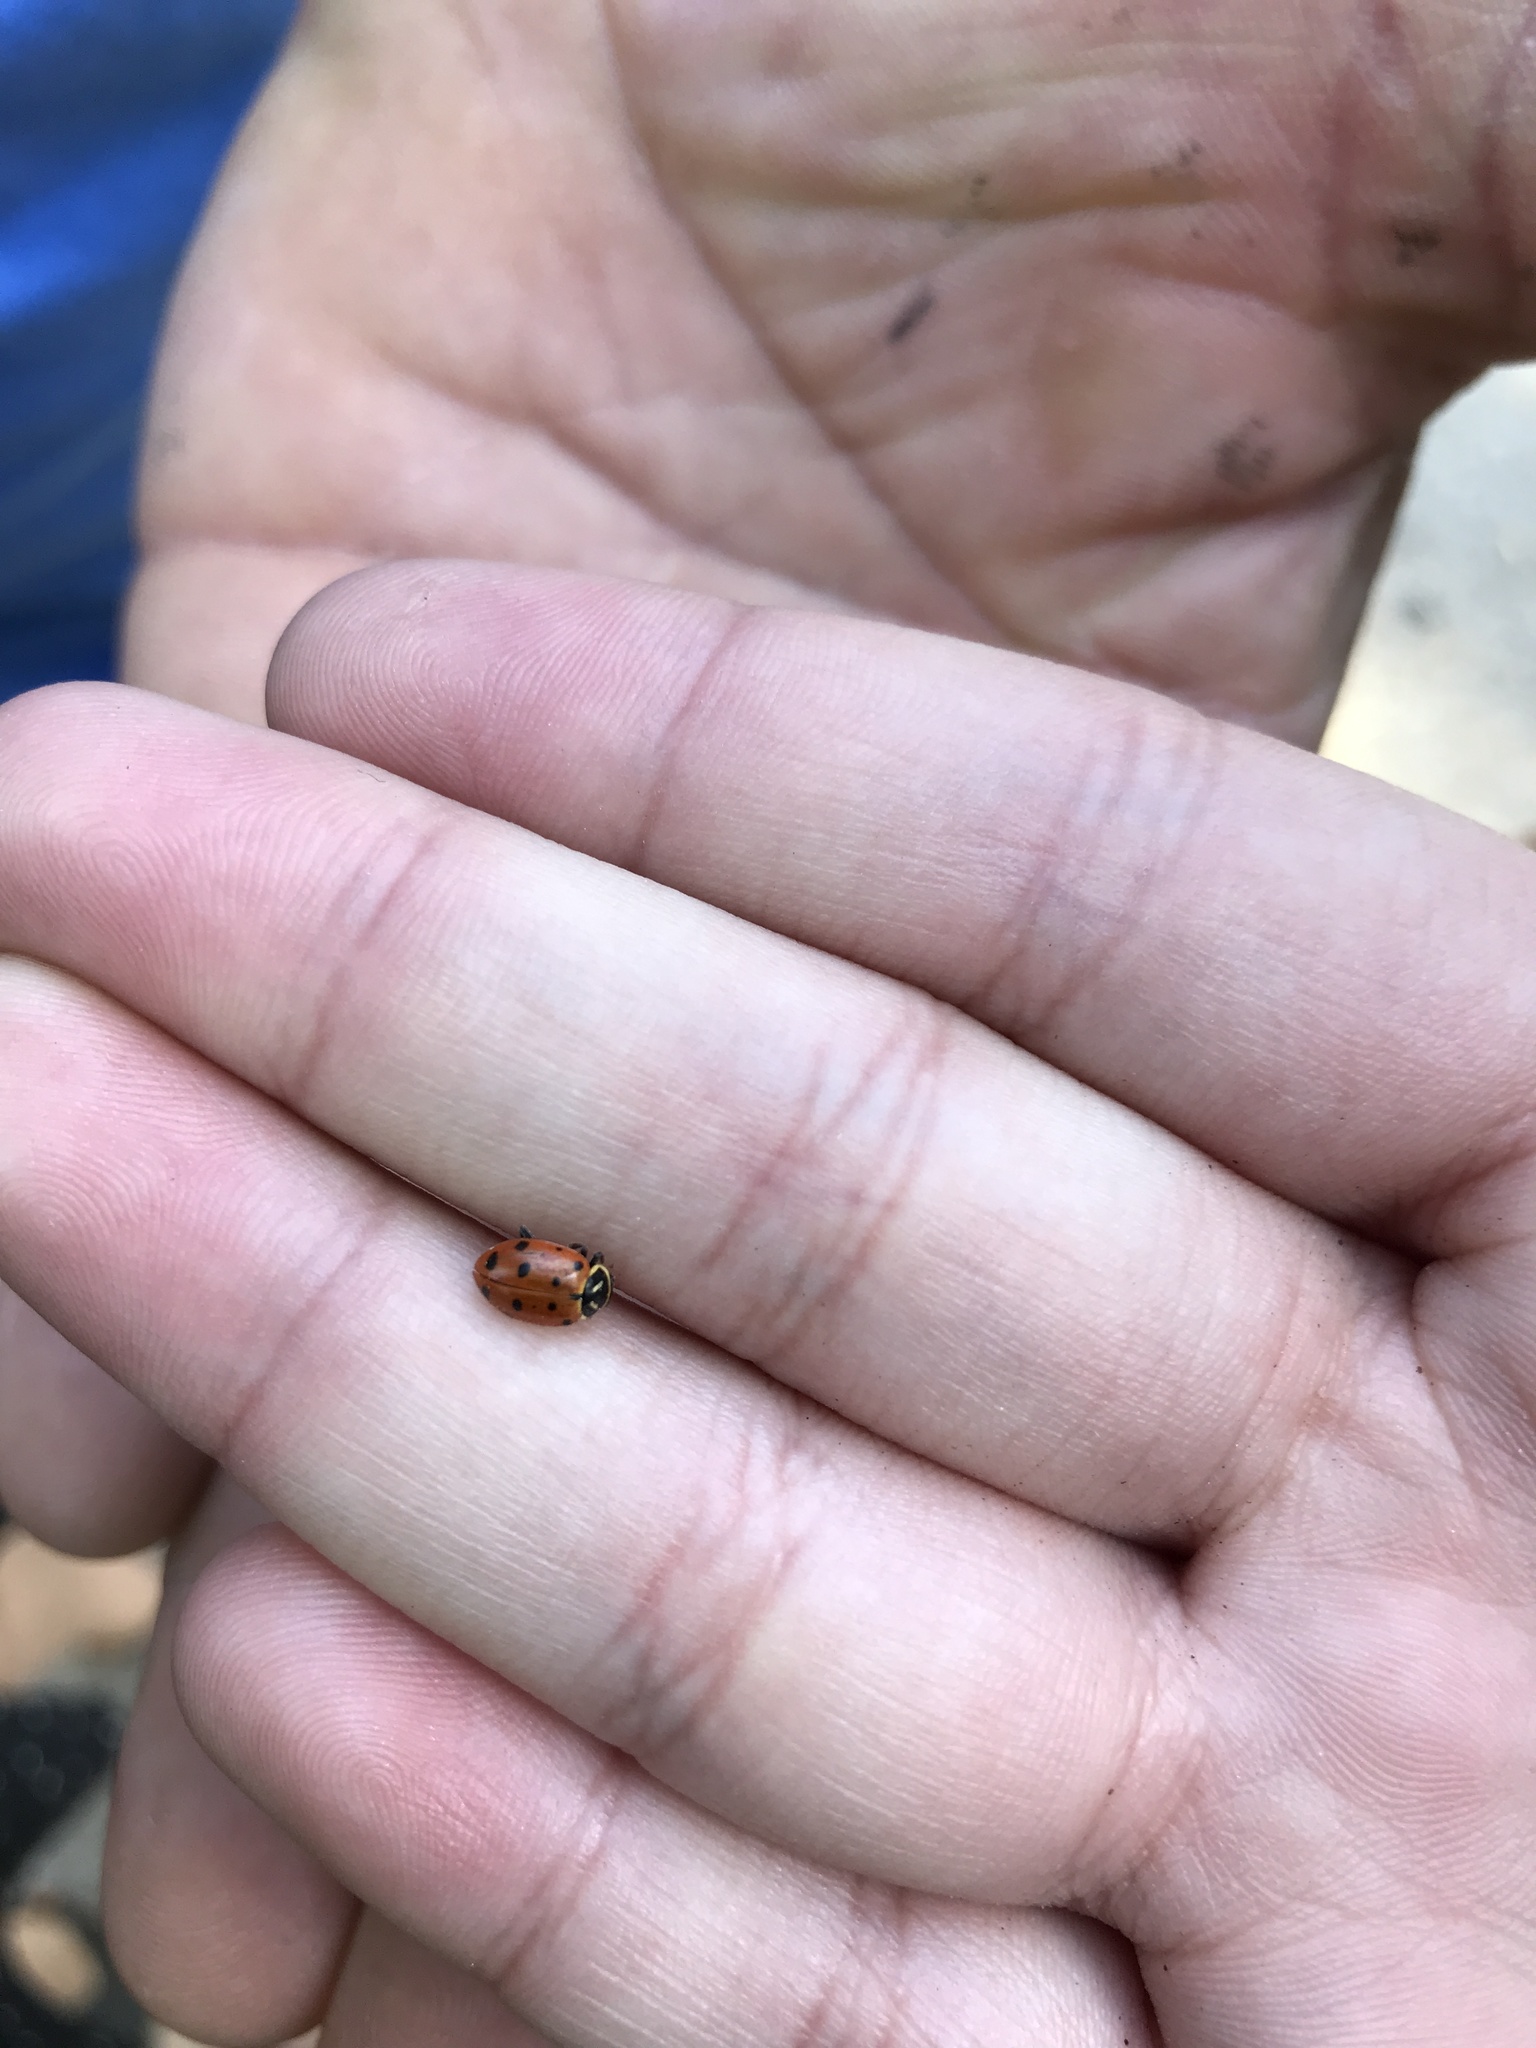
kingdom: Animalia
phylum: Arthropoda
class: Insecta
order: Coleoptera
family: Coccinellidae
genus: Hippodamia
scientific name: Hippodamia convergens
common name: Convergent lady beetle
